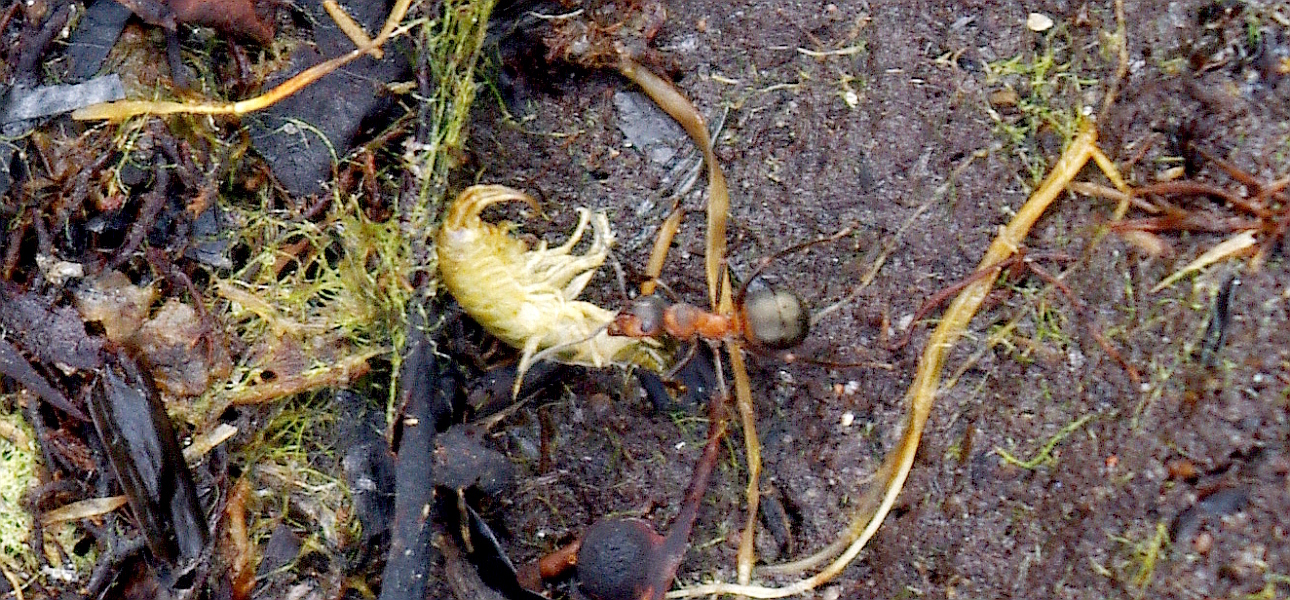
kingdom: Animalia
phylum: Arthropoda
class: Malacostraca
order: Amphipoda
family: Gammaridae
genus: Gammarus
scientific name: Gammarus duebeni
